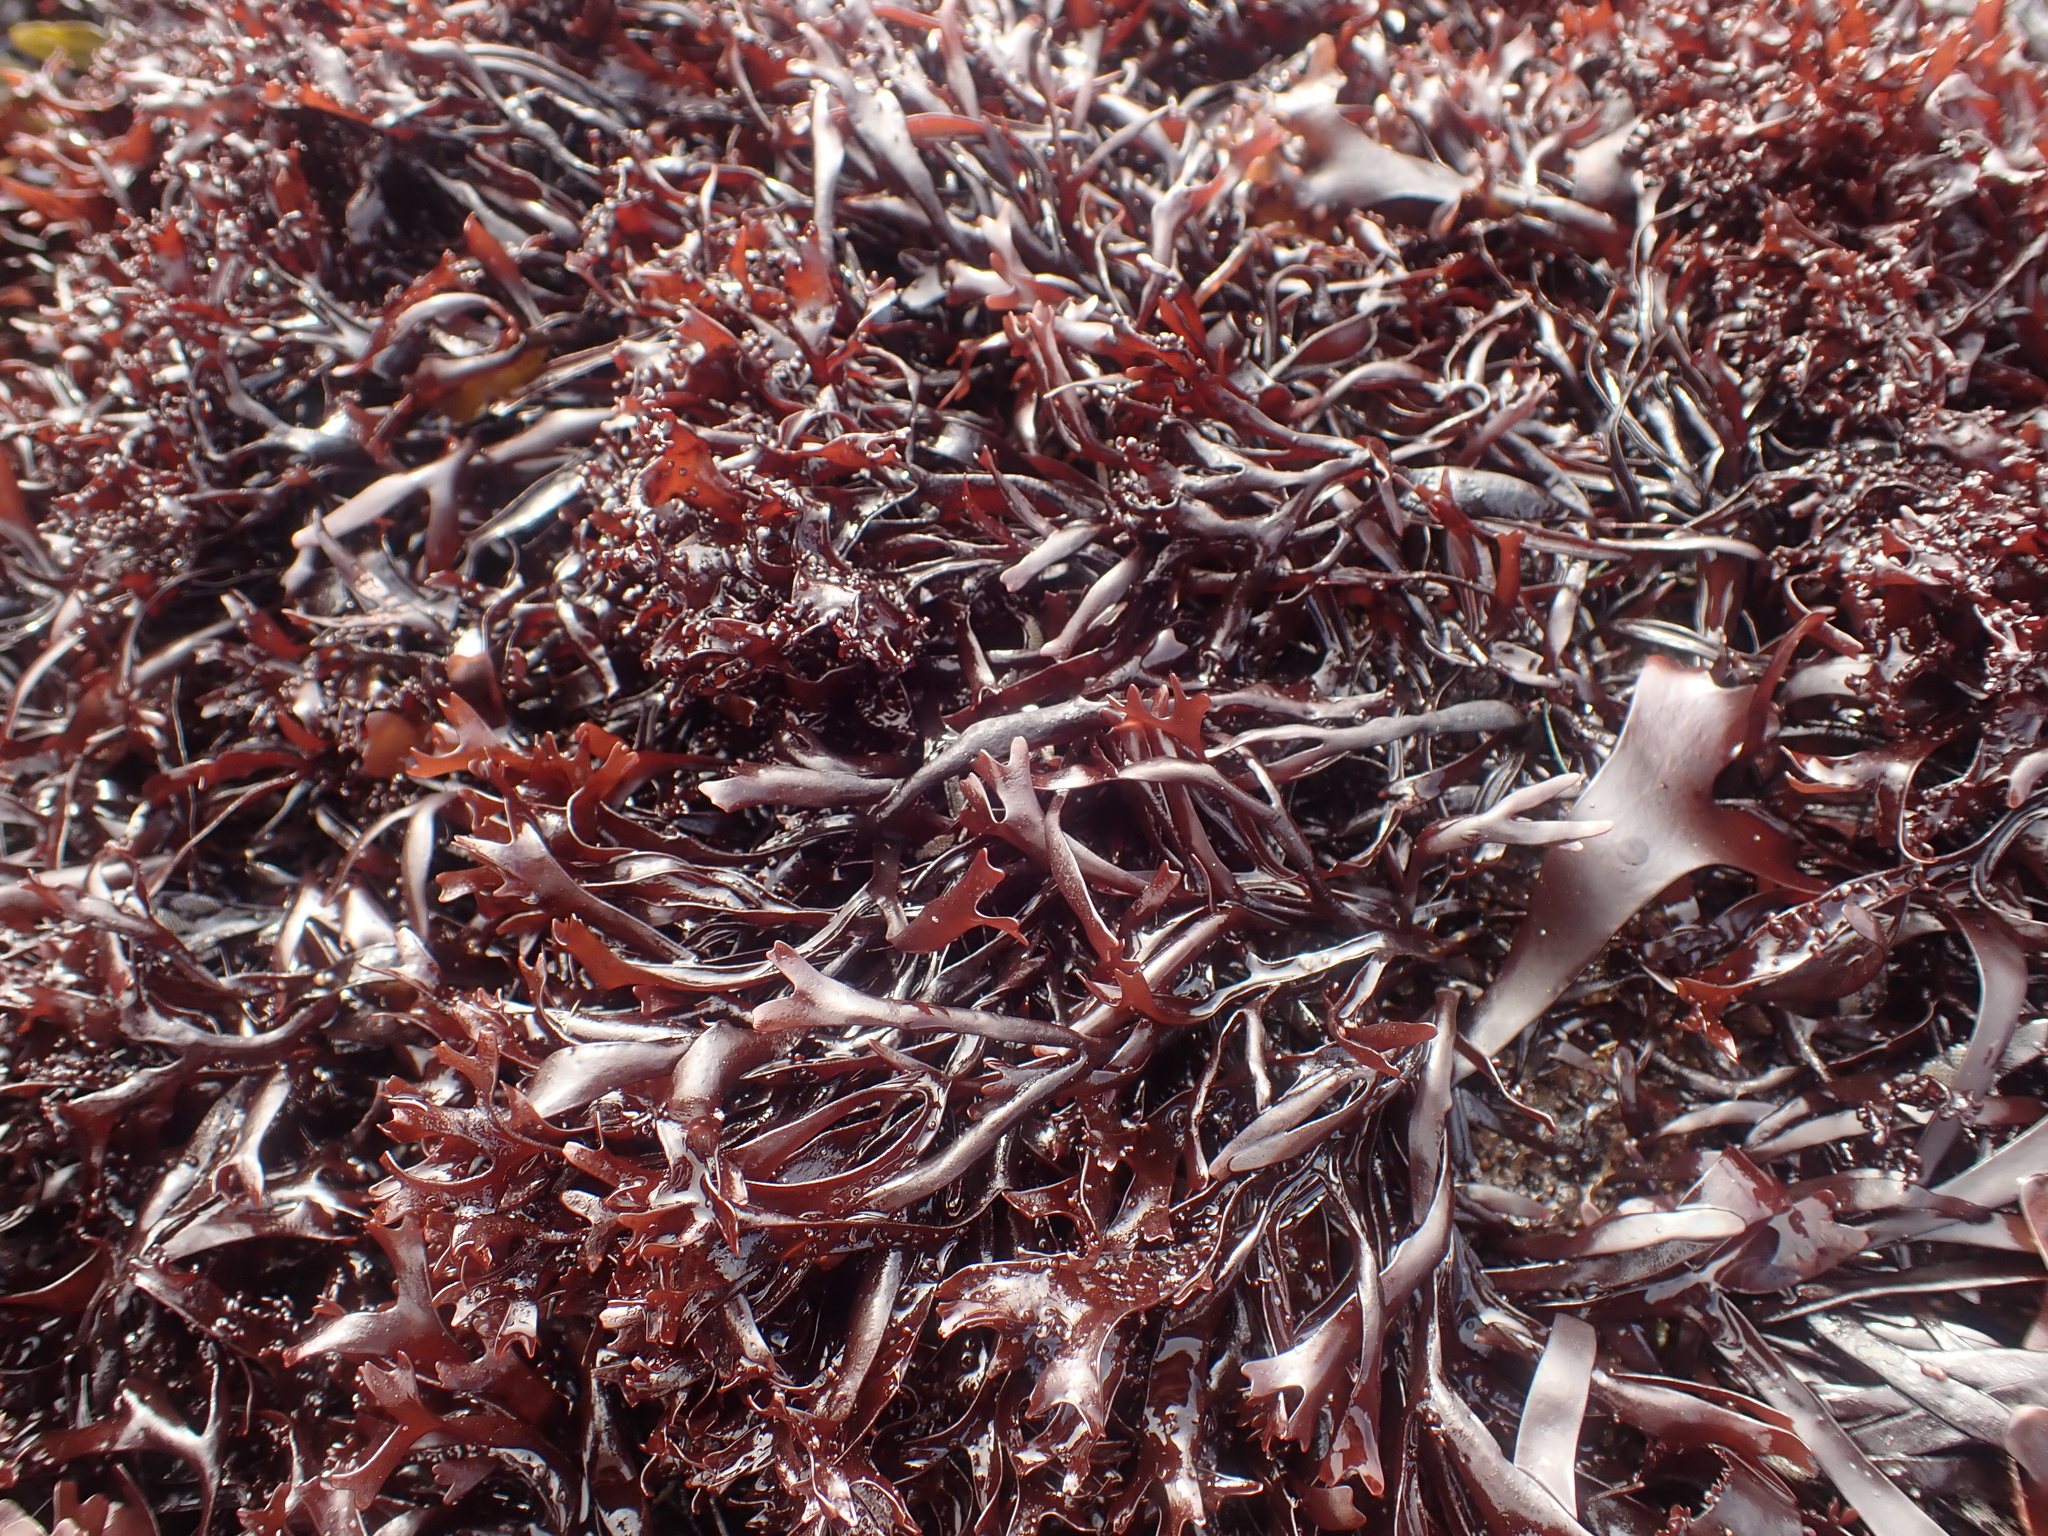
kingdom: Plantae
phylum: Rhodophyta
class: Florideophyceae
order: Gigartinales
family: Phyllophoraceae
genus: Mastocarpus
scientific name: Mastocarpus stellatus
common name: False irish moss
